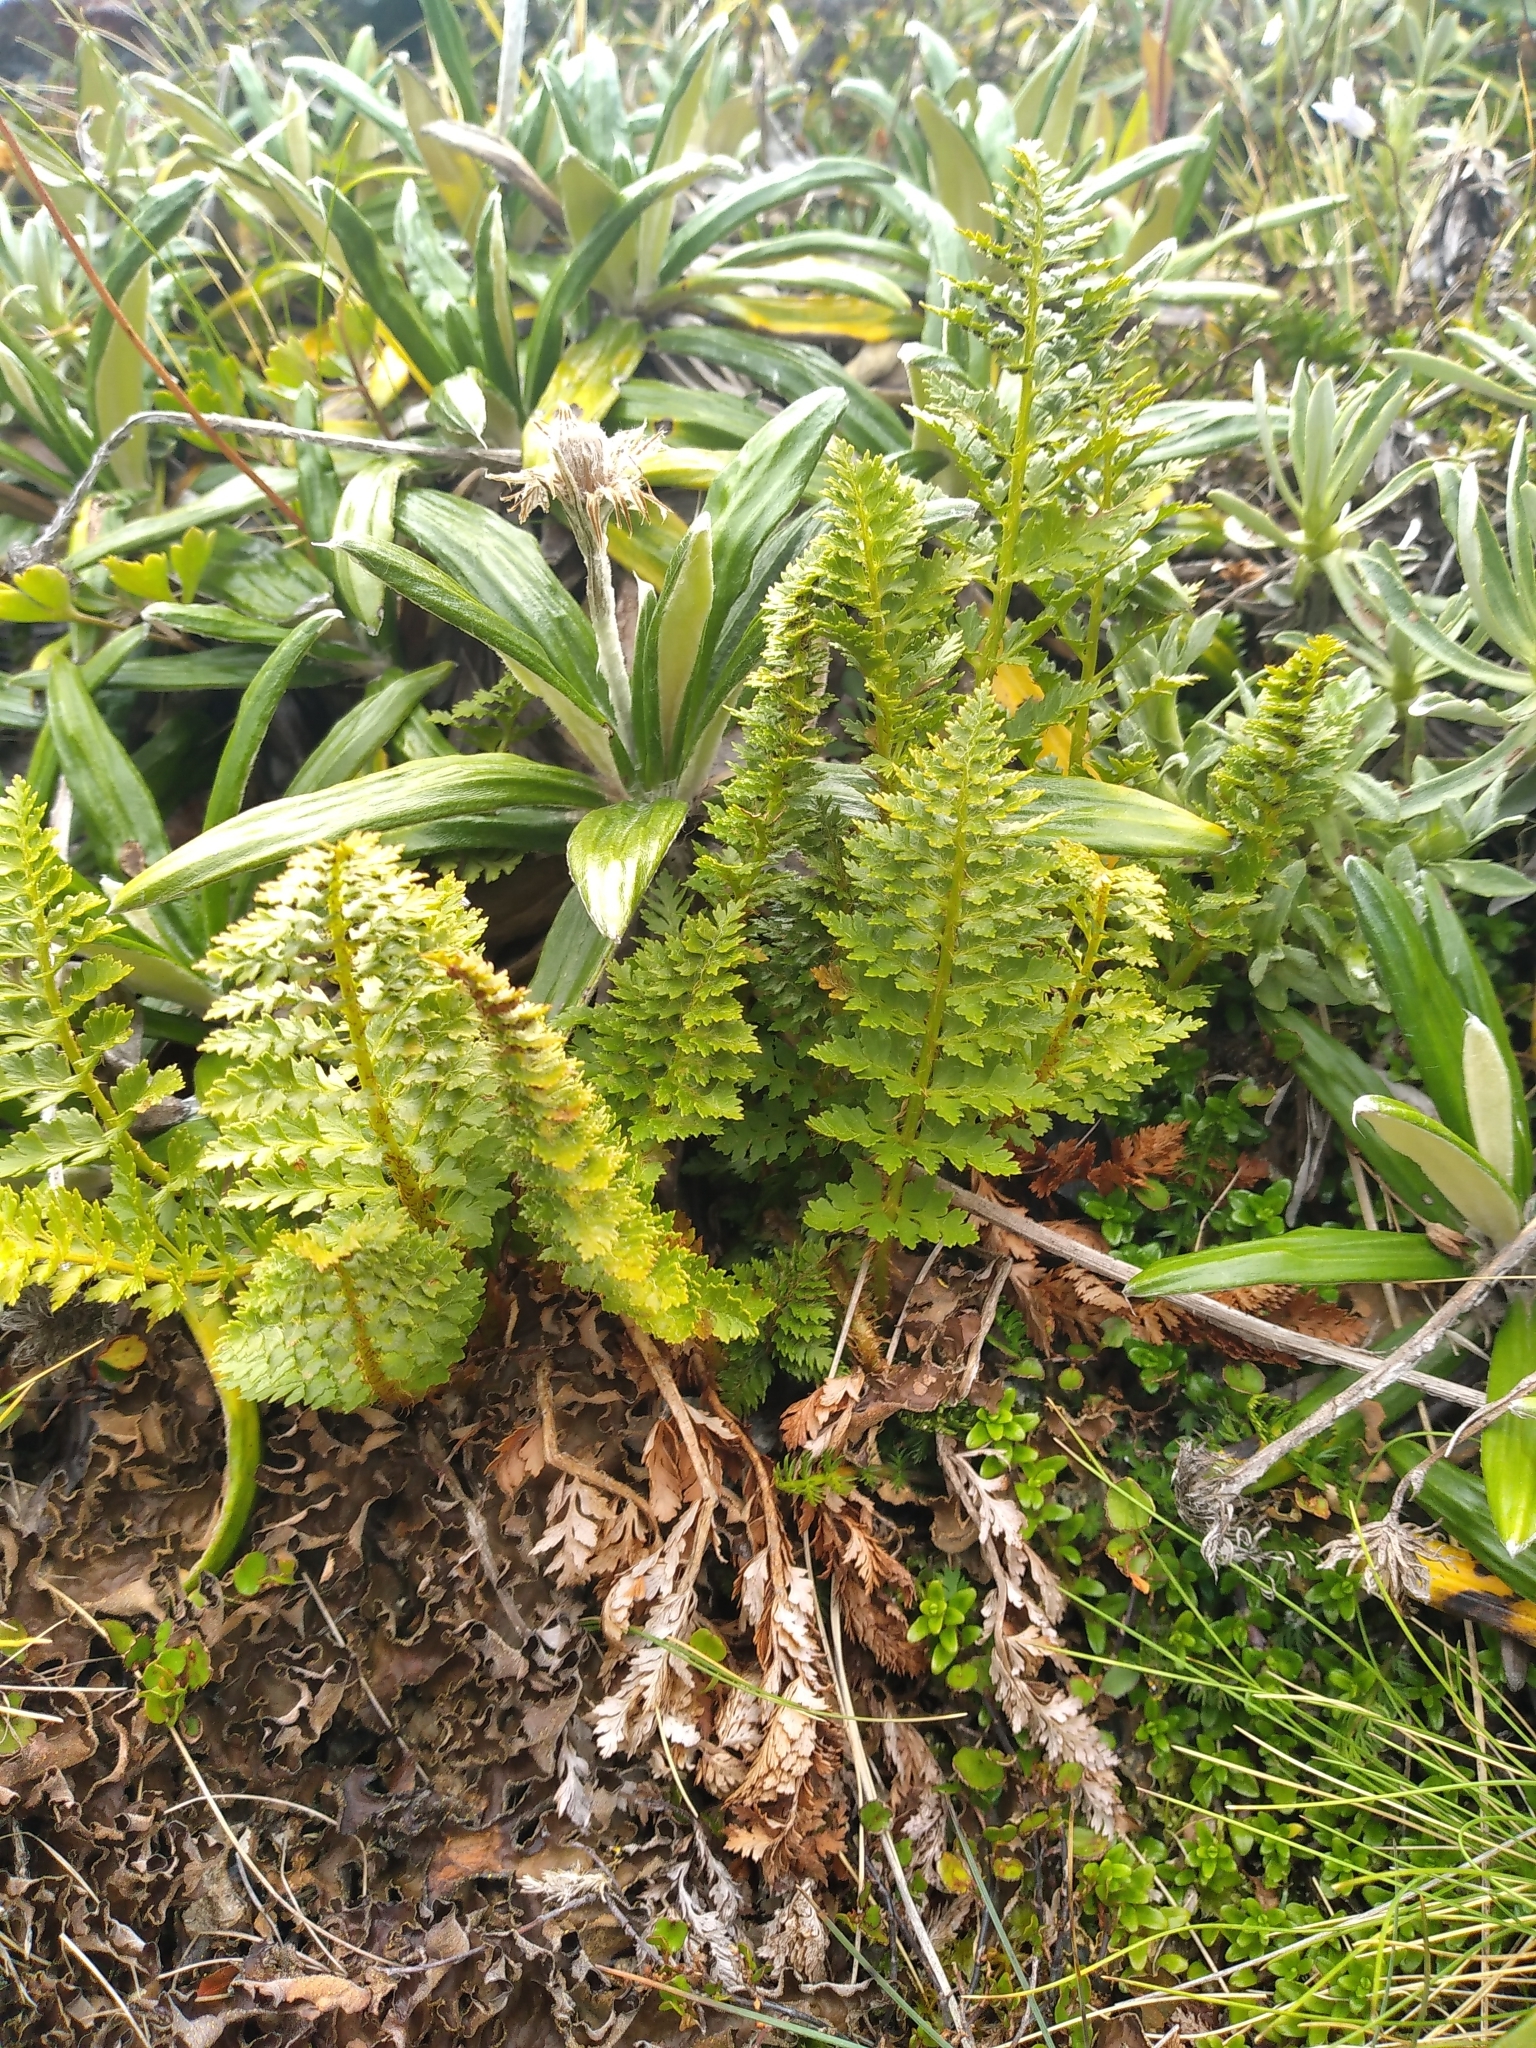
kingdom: Plantae
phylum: Tracheophyta
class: Polypodiopsida
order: Polypodiales
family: Dryopteridaceae
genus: Polystichum
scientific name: Polystichum cystostegia
